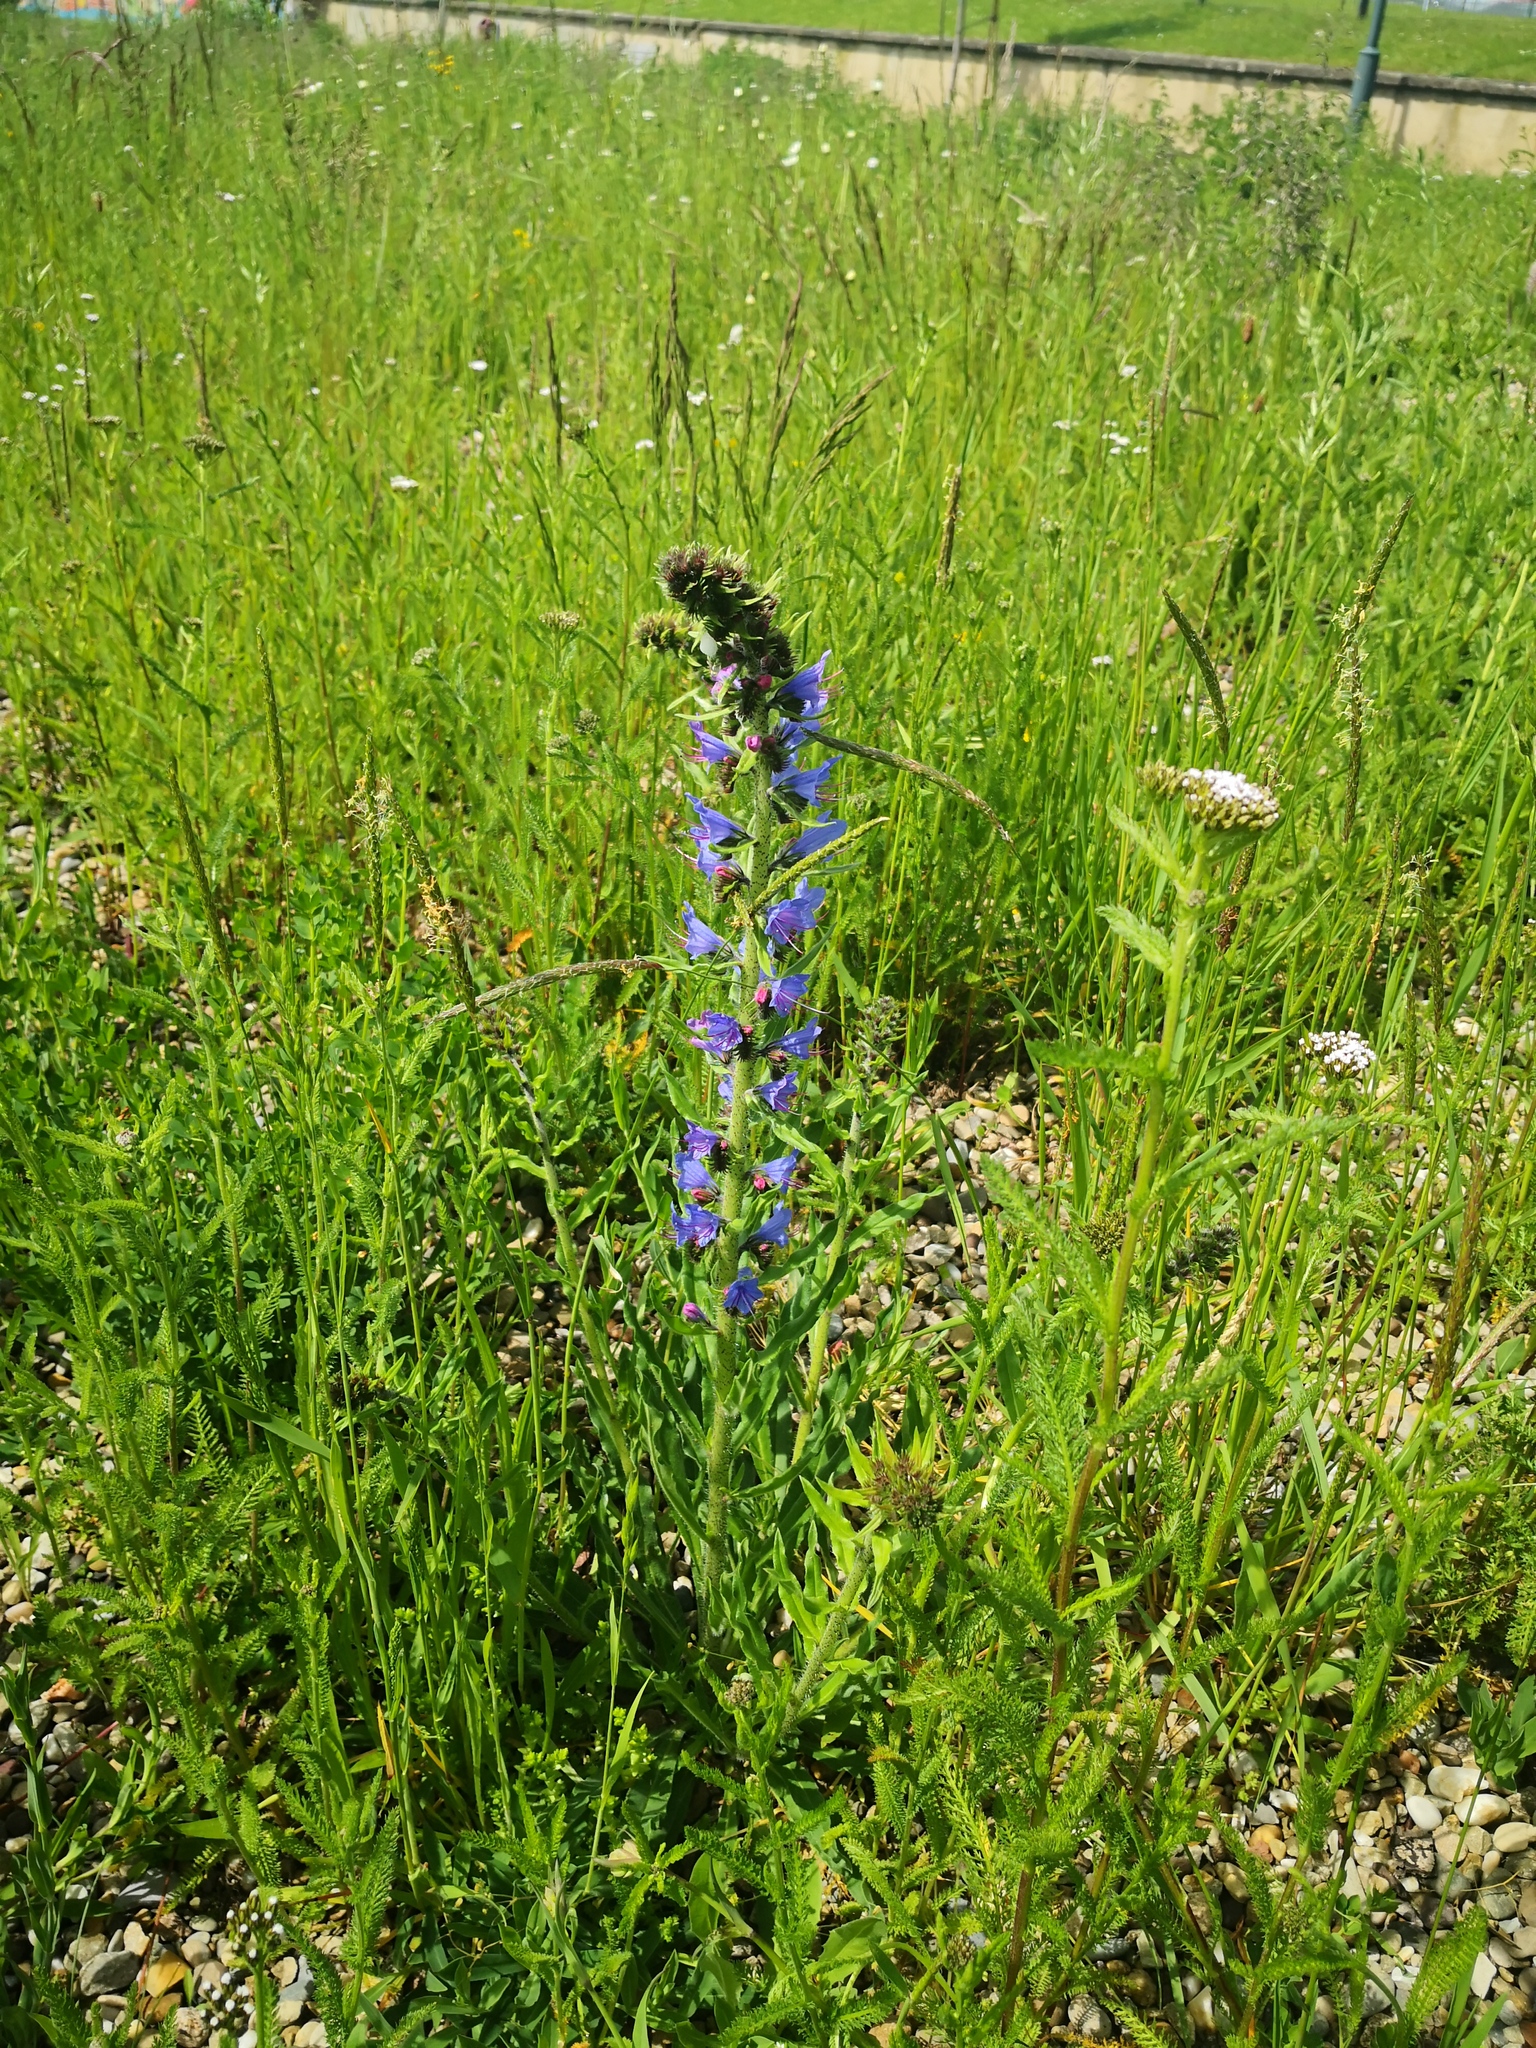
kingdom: Plantae
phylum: Tracheophyta
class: Magnoliopsida
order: Boraginales
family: Boraginaceae
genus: Echium
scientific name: Echium vulgare
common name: Common viper's bugloss
